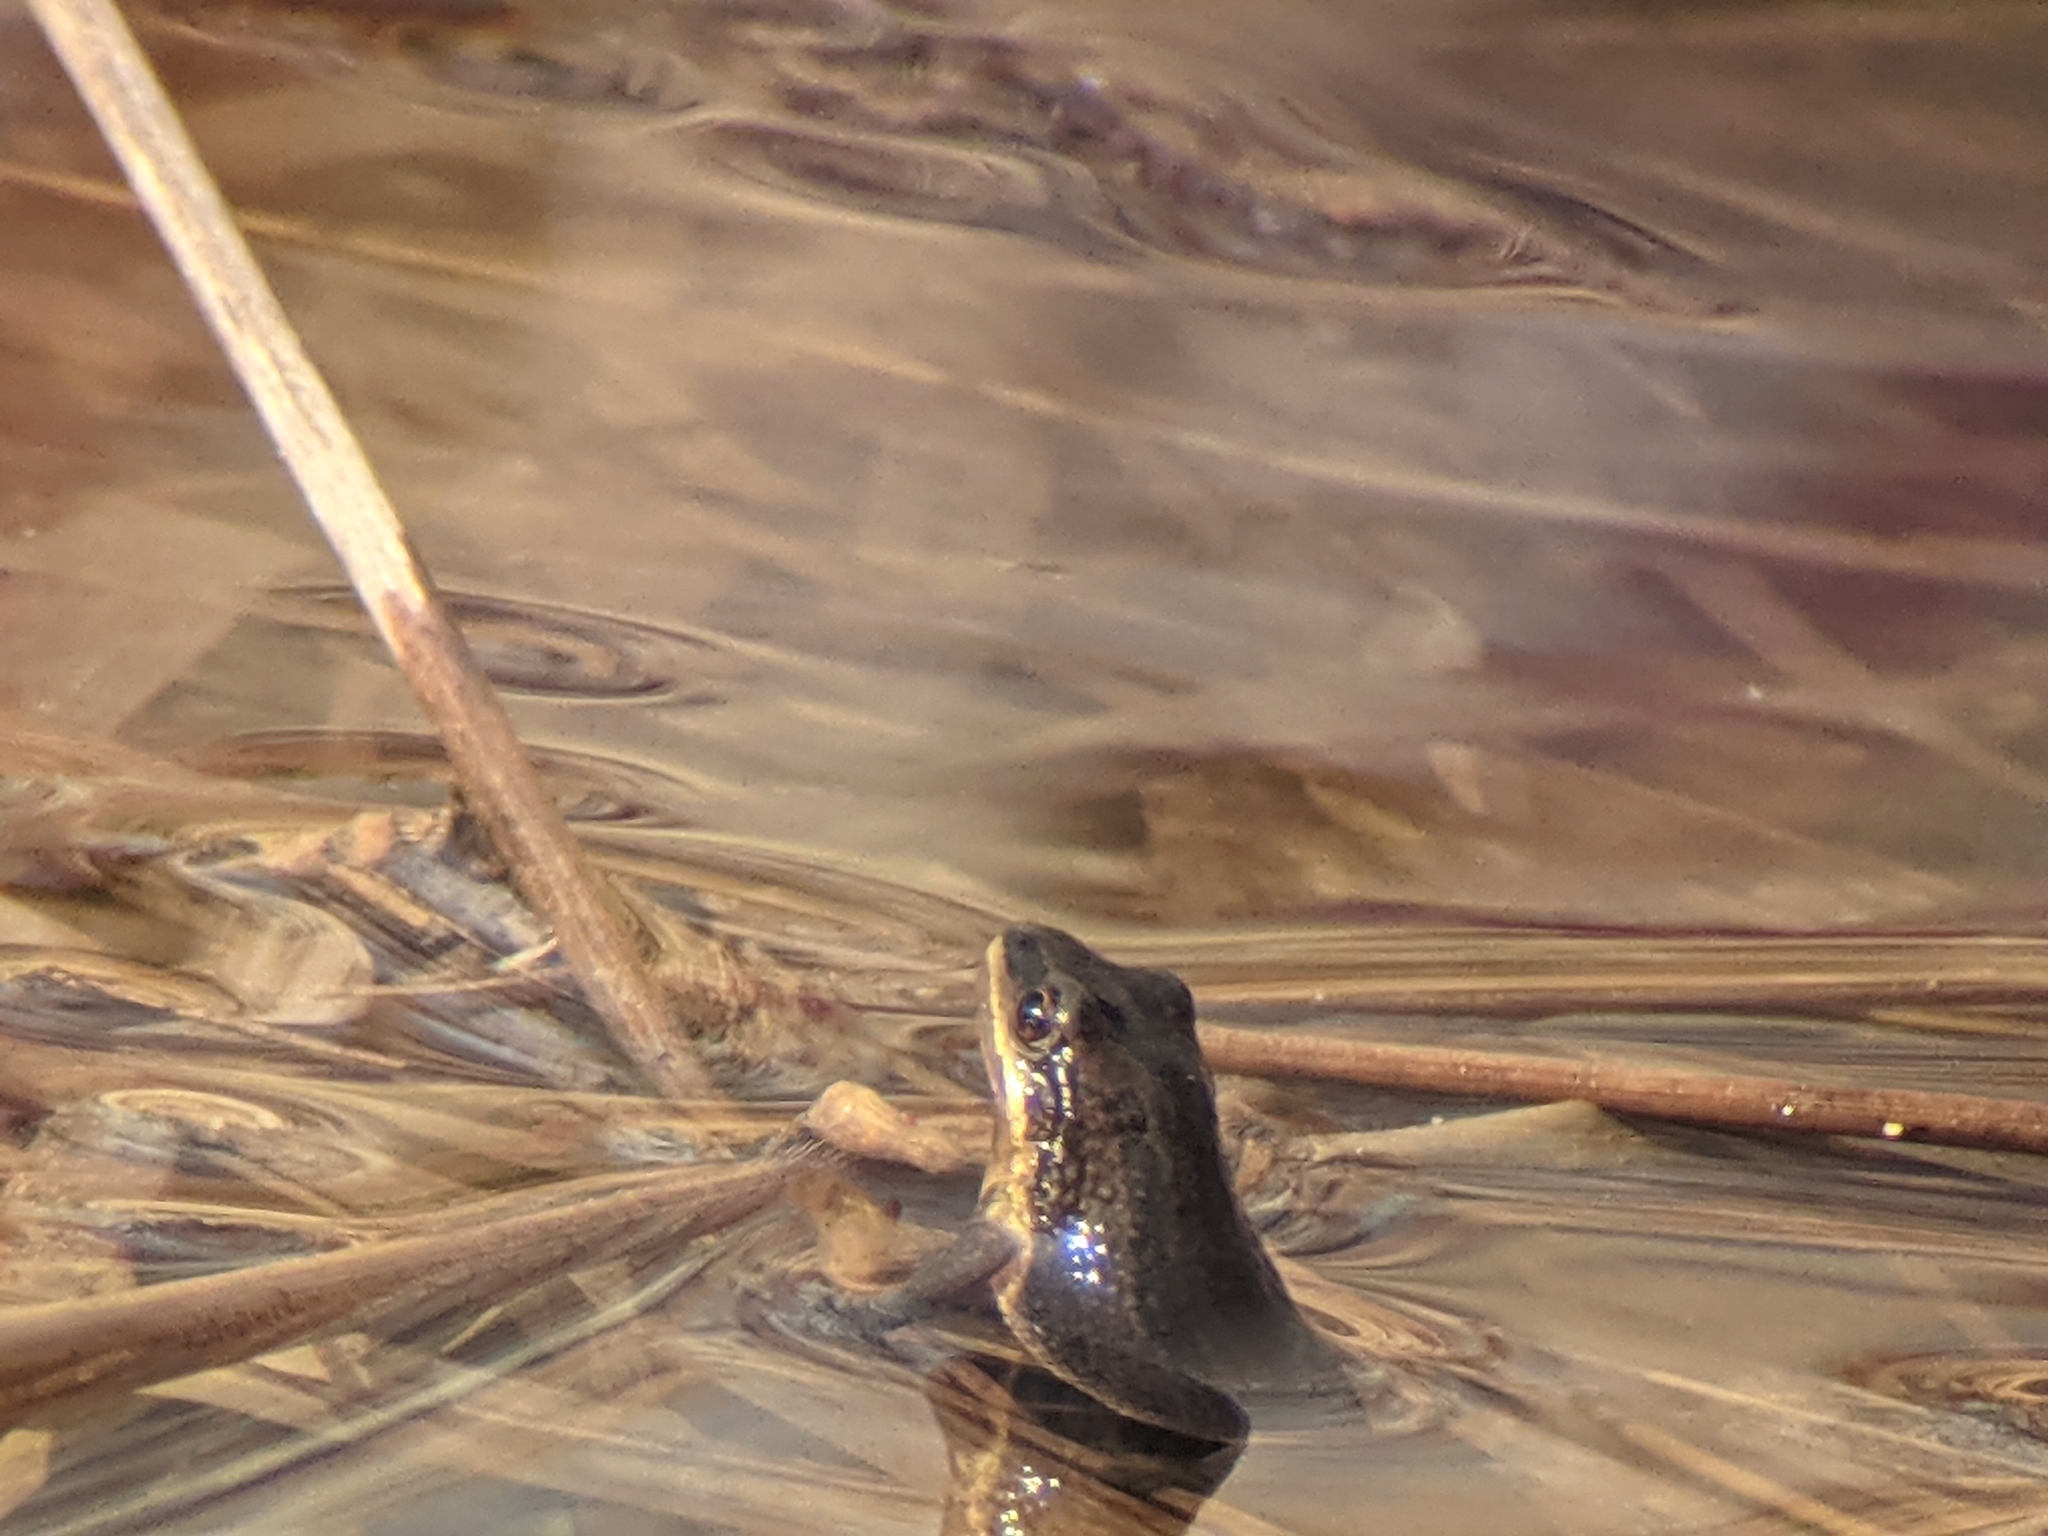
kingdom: Animalia
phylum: Chordata
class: Amphibia
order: Anura
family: Hylidae
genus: Pseudacris
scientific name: Pseudacris maculata
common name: Boreal chorus frog
